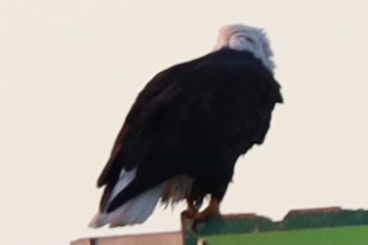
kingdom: Animalia
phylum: Chordata
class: Aves
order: Accipitriformes
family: Accipitridae
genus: Haliaeetus
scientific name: Haliaeetus leucocephalus
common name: Bald eagle
